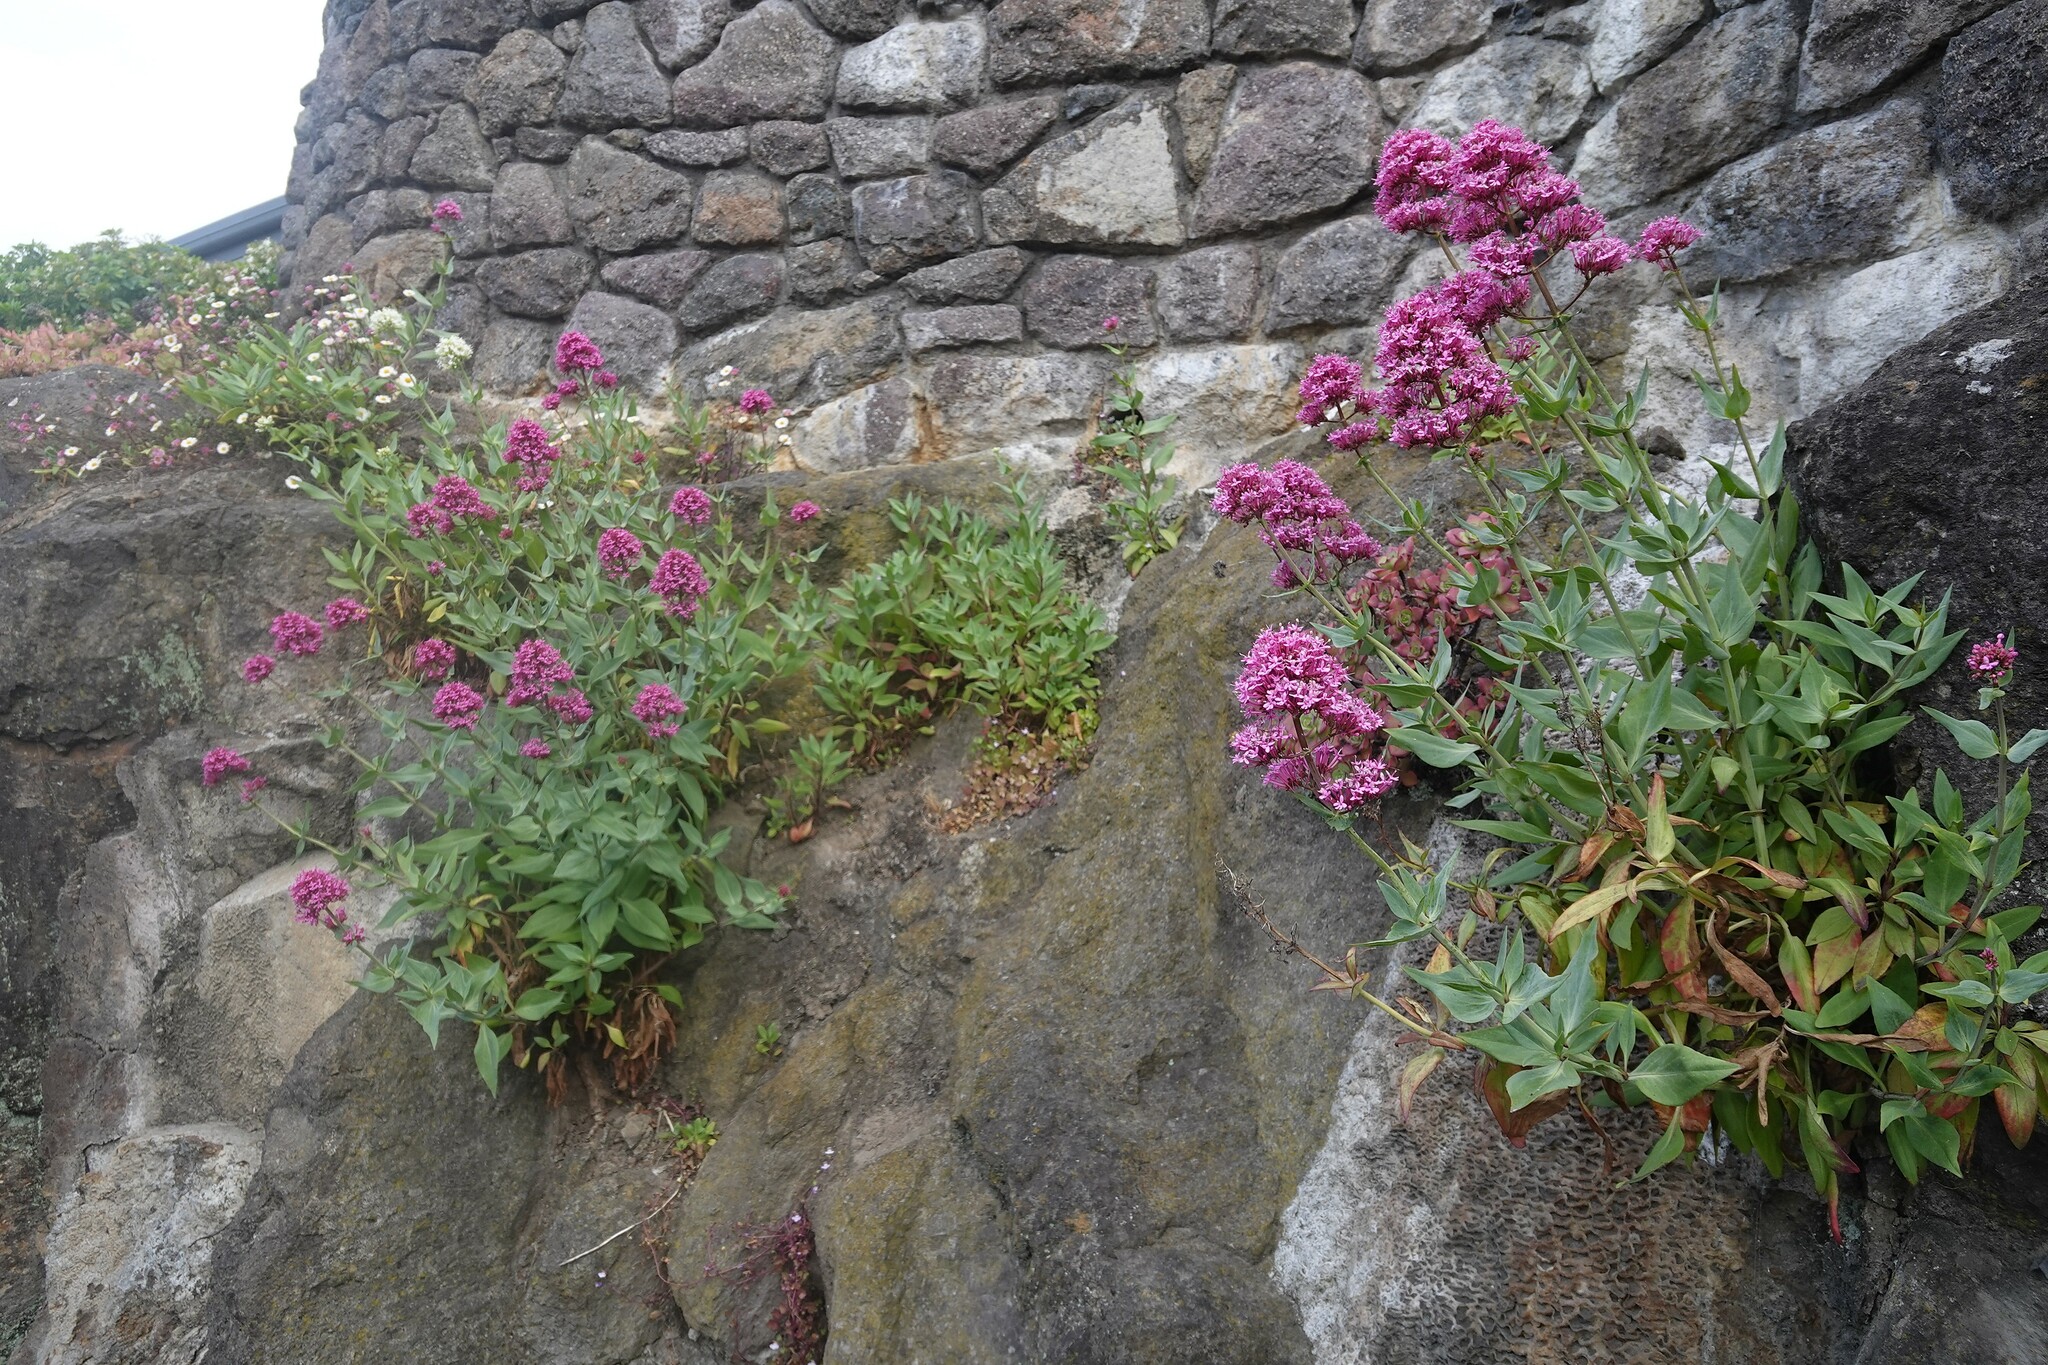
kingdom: Plantae
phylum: Tracheophyta
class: Magnoliopsida
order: Dipsacales
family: Caprifoliaceae
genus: Centranthus
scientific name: Centranthus ruber
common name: Red valerian
